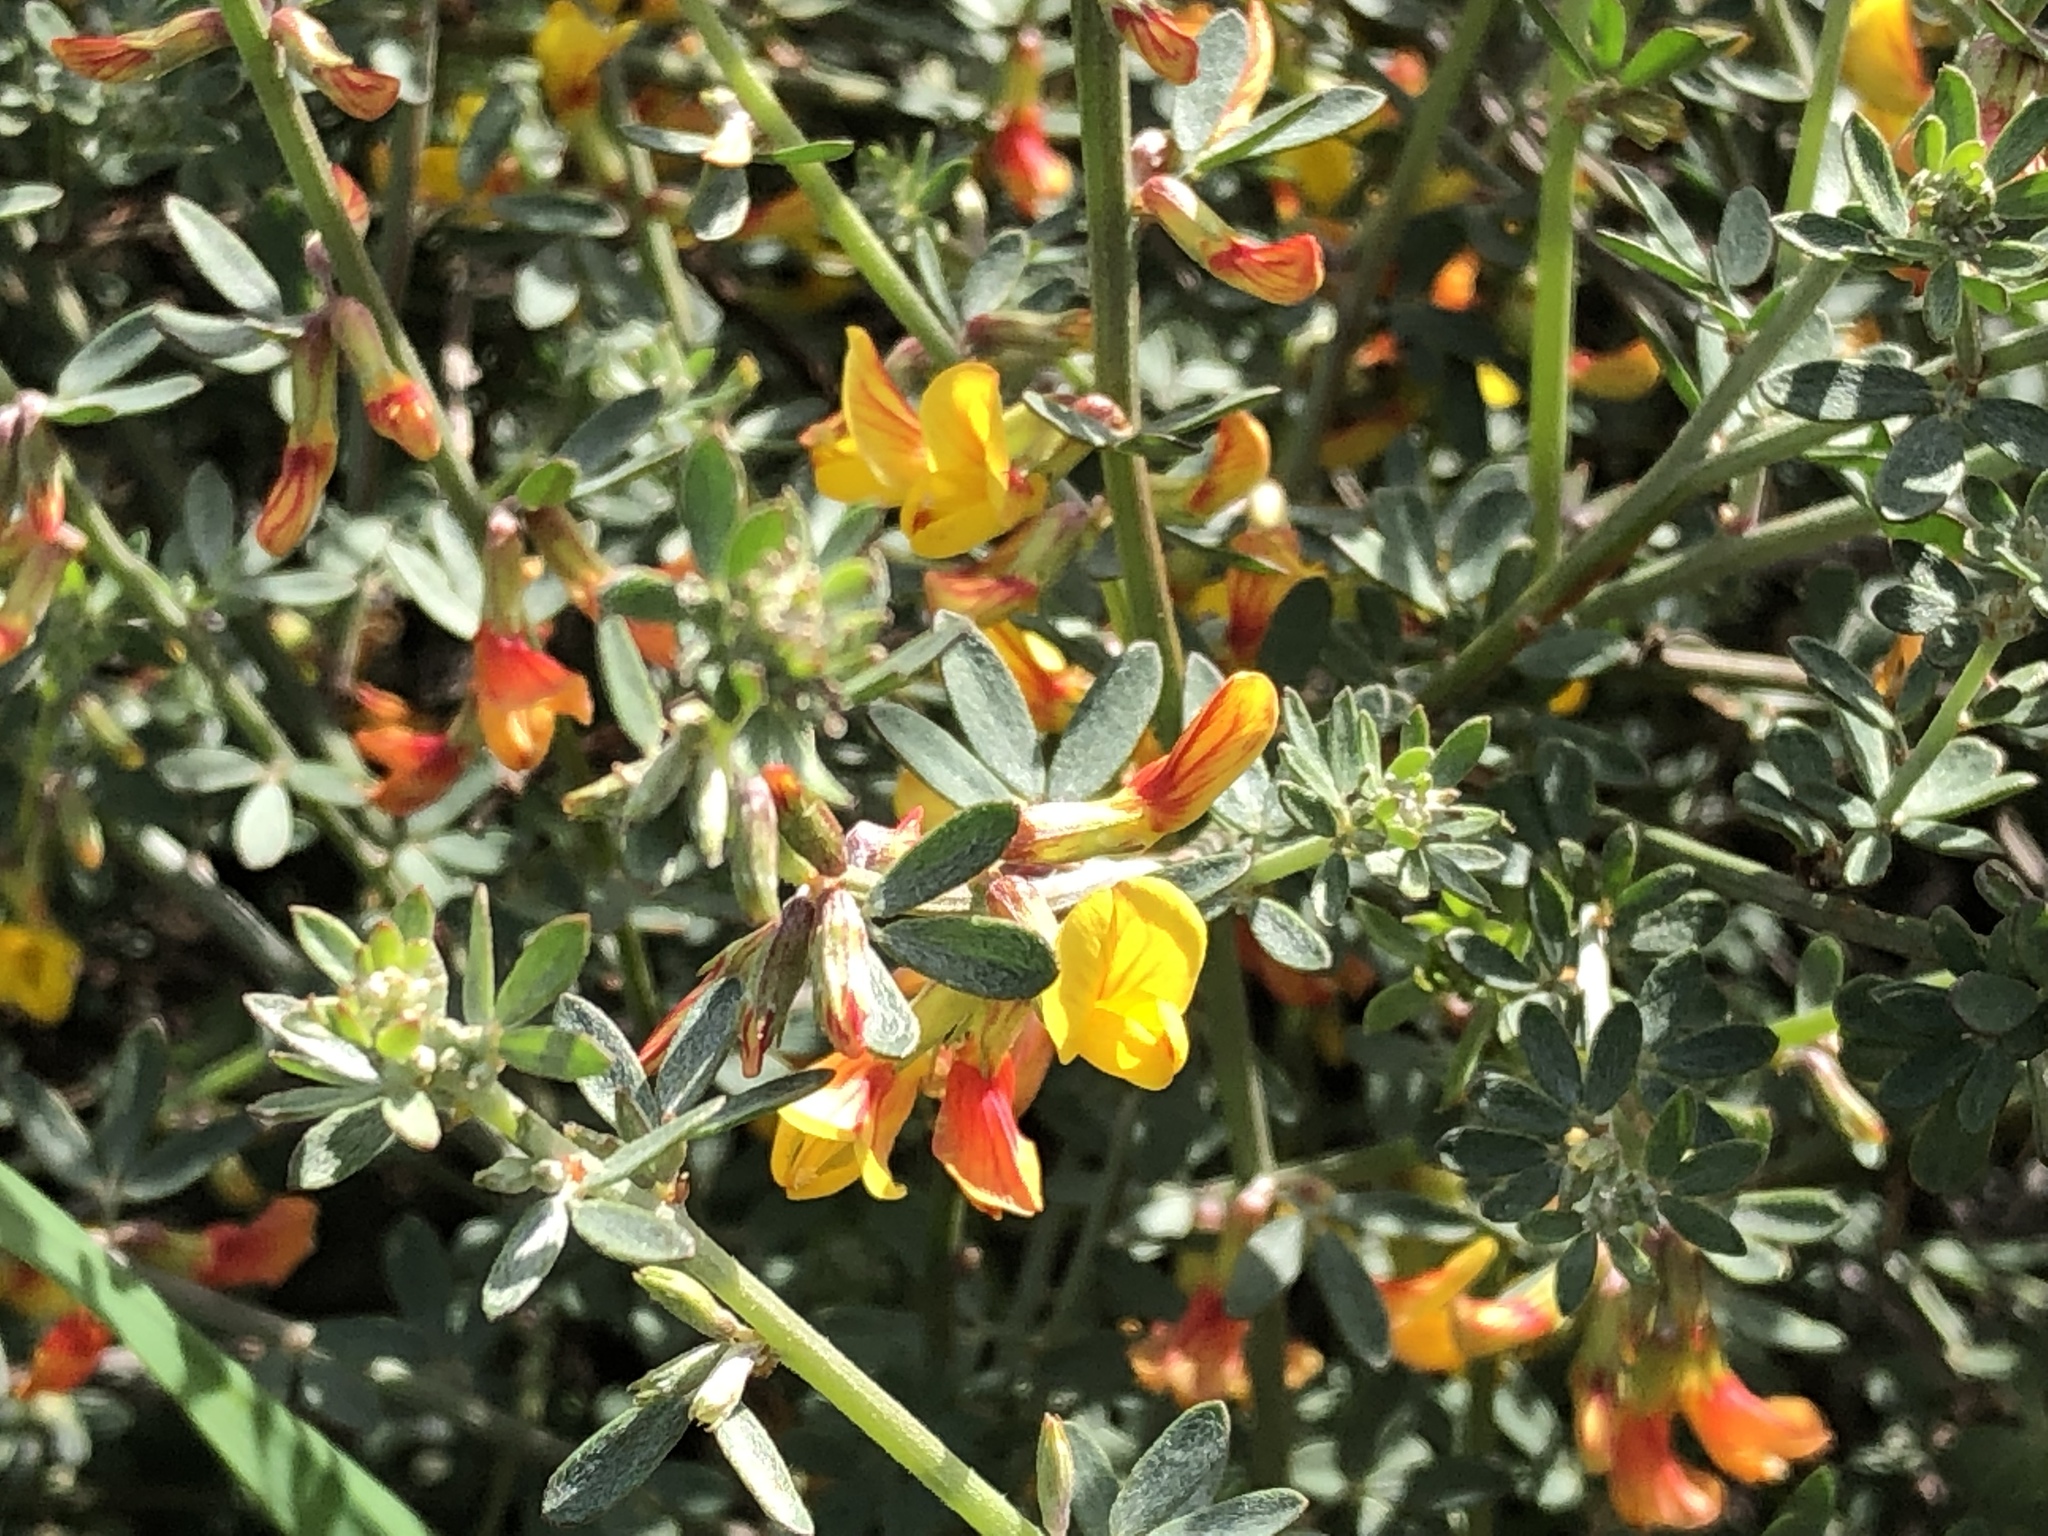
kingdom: Plantae
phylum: Tracheophyta
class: Magnoliopsida
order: Fabales
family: Fabaceae
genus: Acmispon
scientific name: Acmispon glaber
